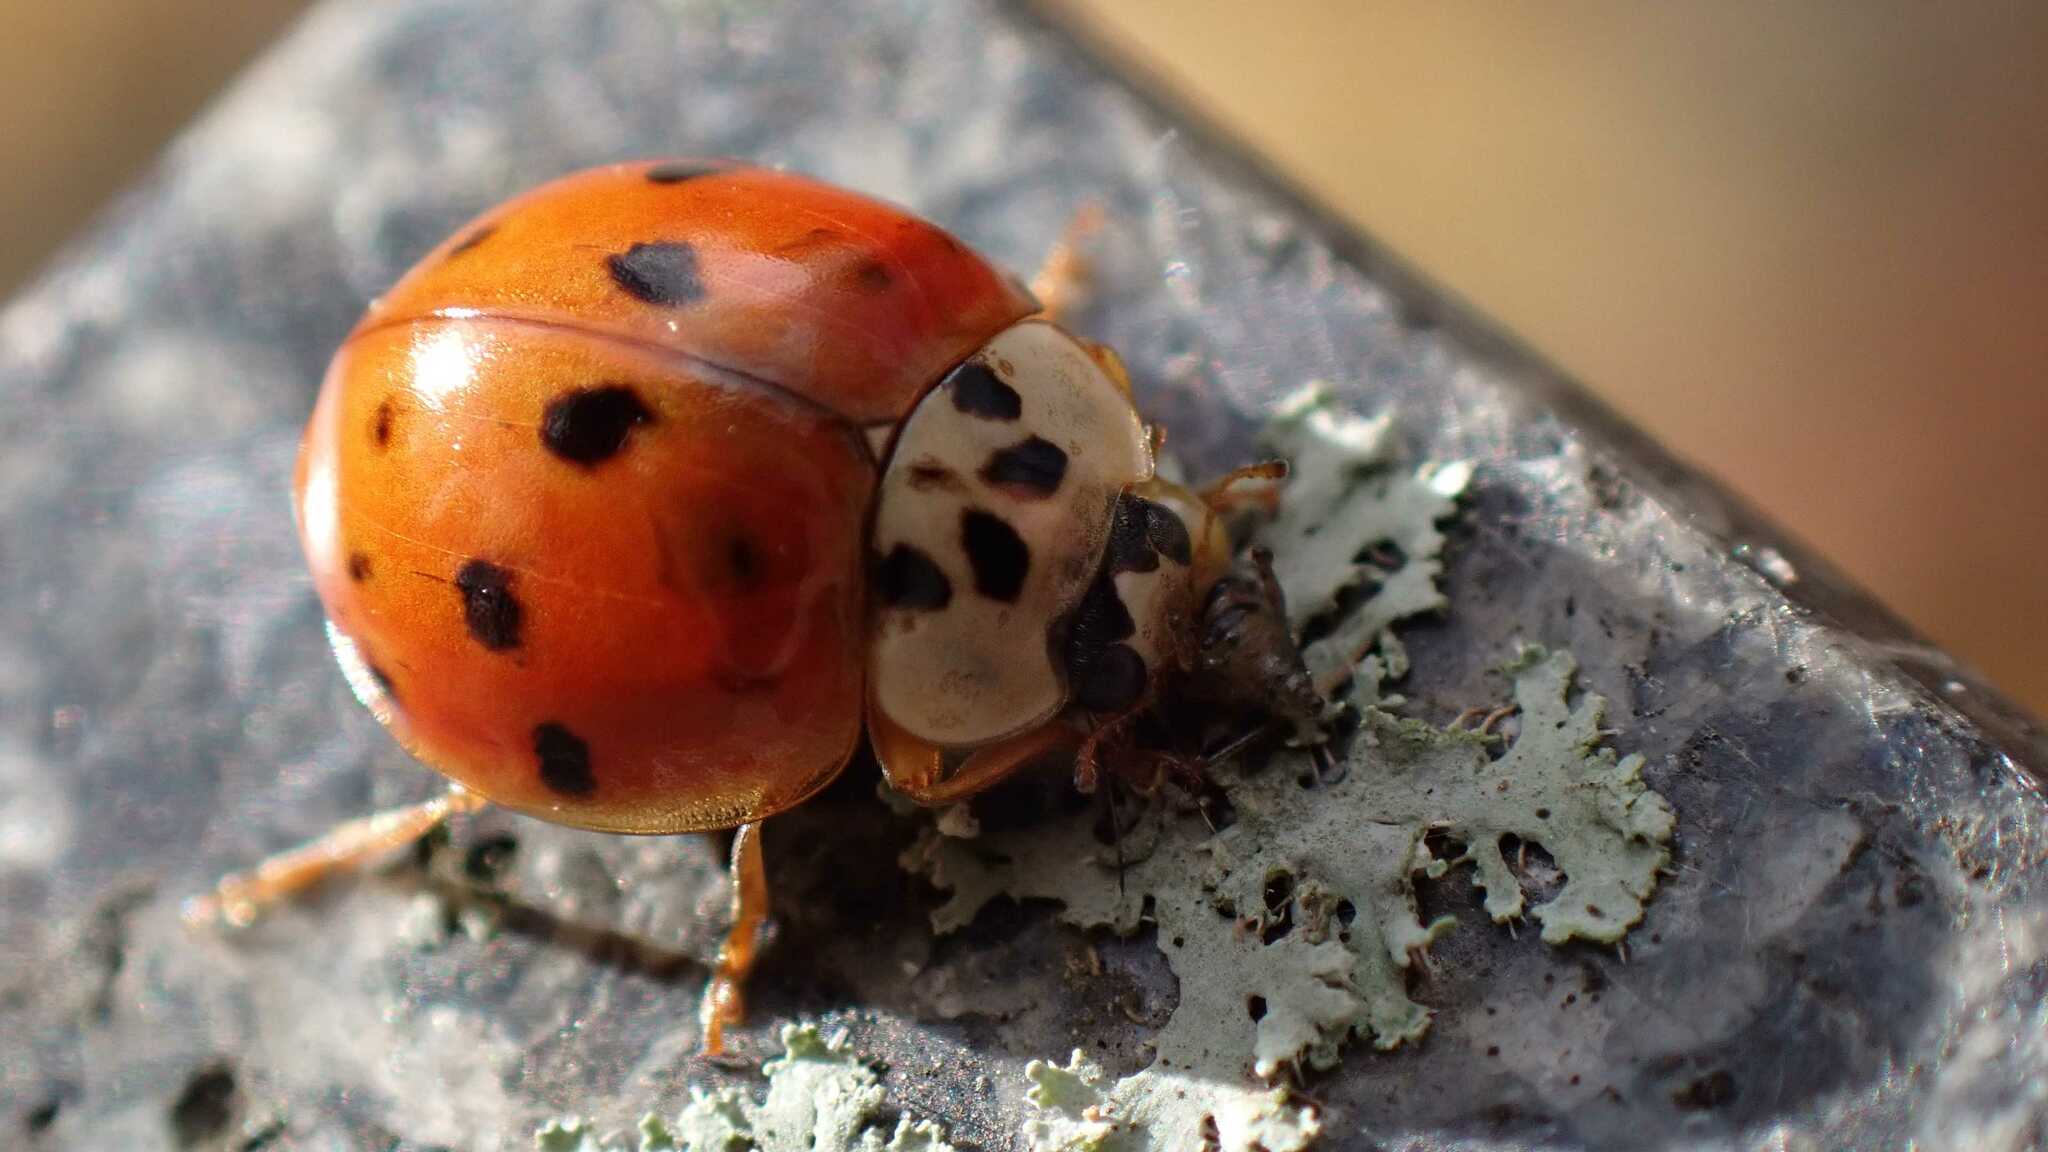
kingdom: Animalia
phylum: Arthropoda
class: Insecta
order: Coleoptera
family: Coccinellidae
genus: Harmonia
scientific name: Harmonia axyridis
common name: Harlequin ladybird
